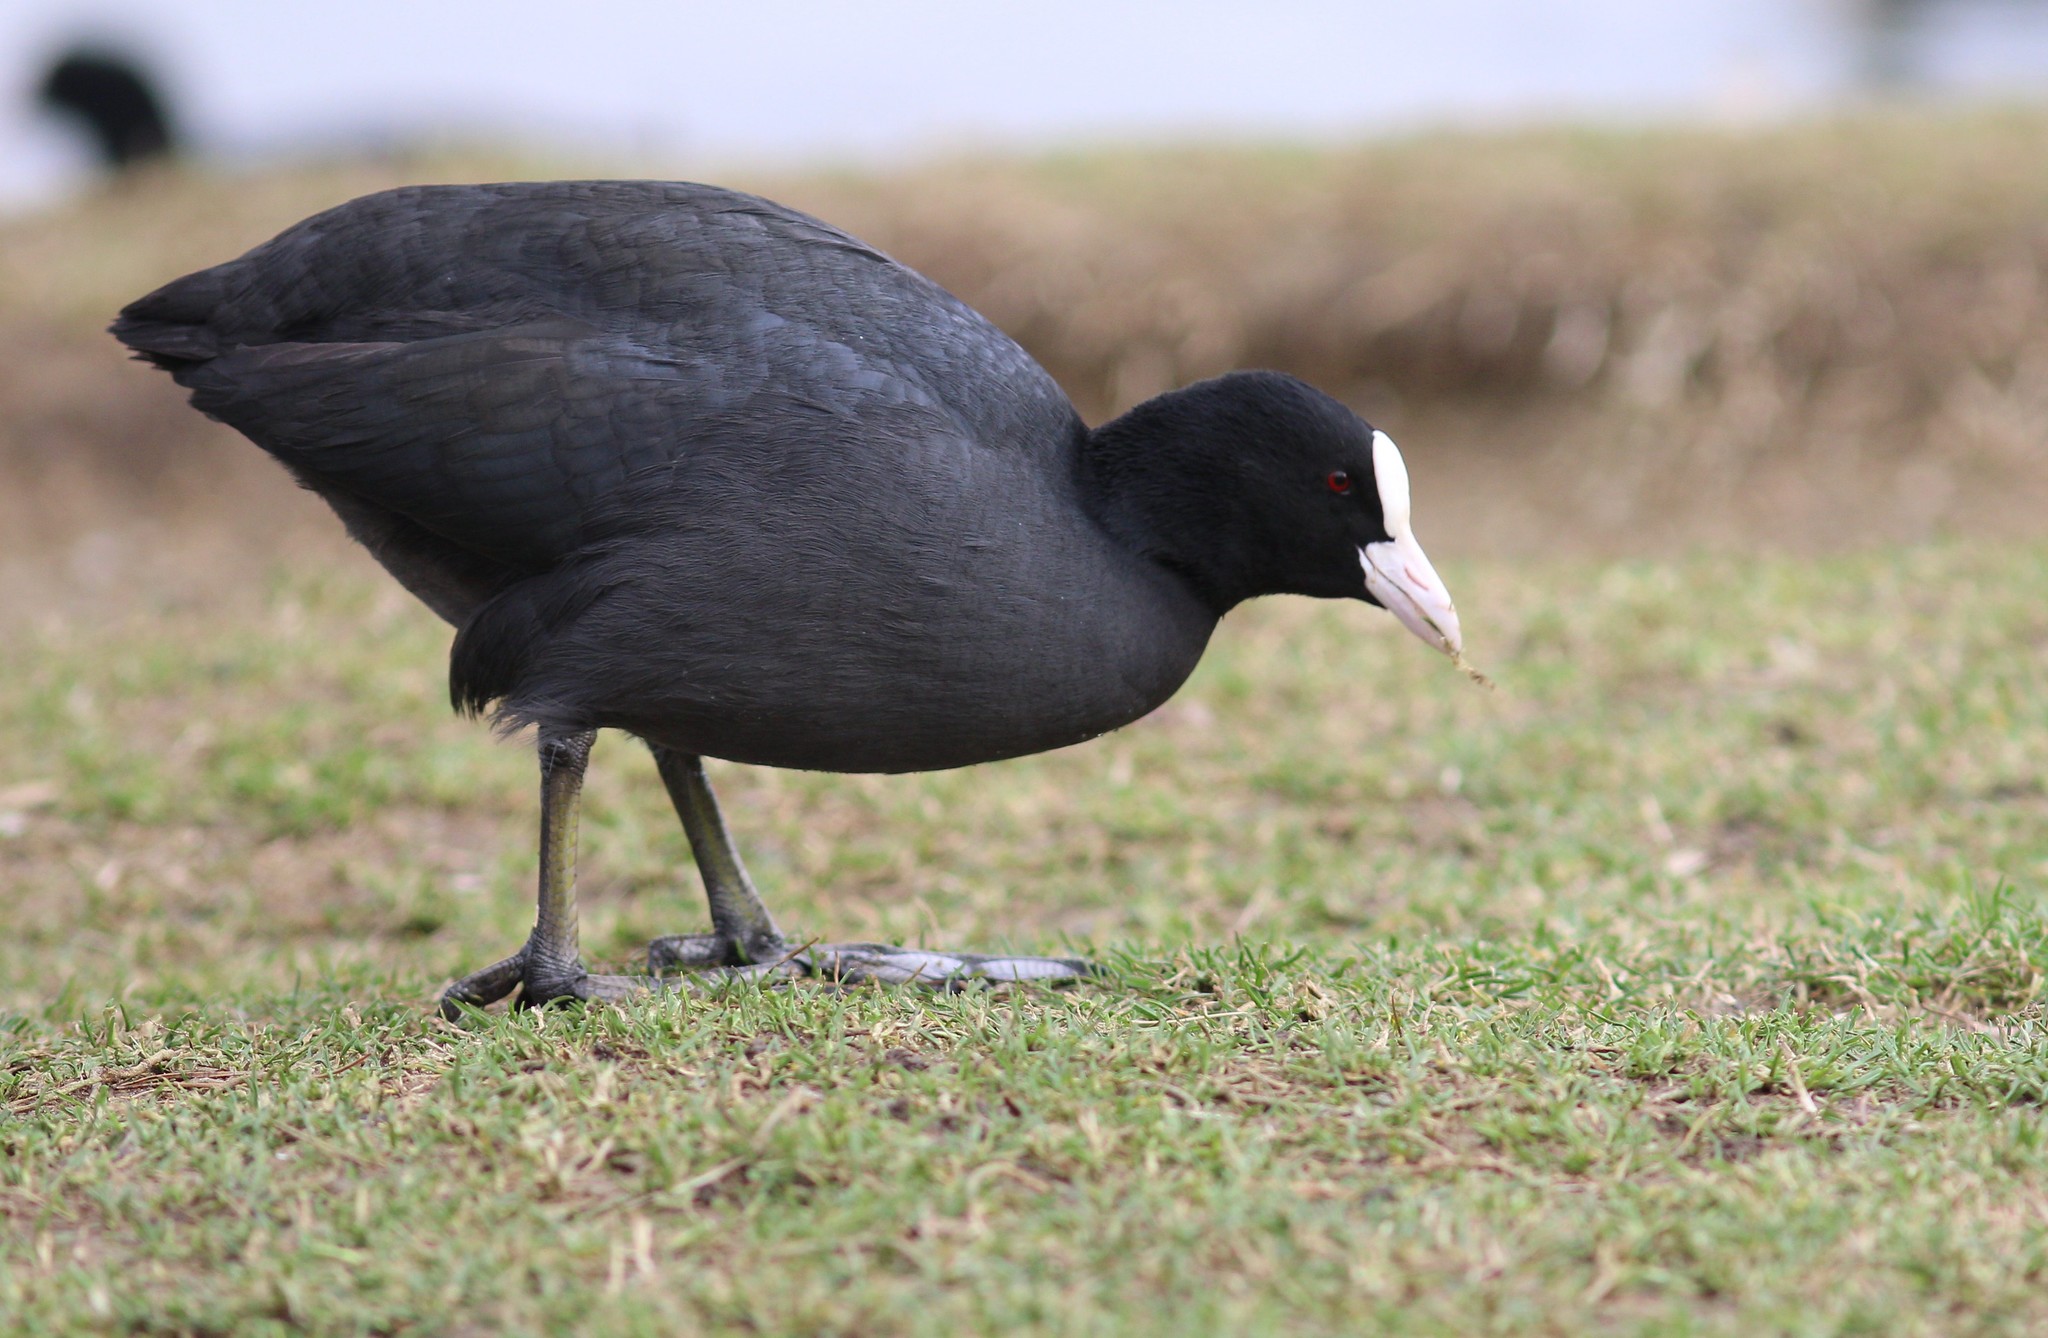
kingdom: Animalia
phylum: Chordata
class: Aves
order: Gruiformes
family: Rallidae
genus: Fulica
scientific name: Fulica atra
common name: Eurasian coot
